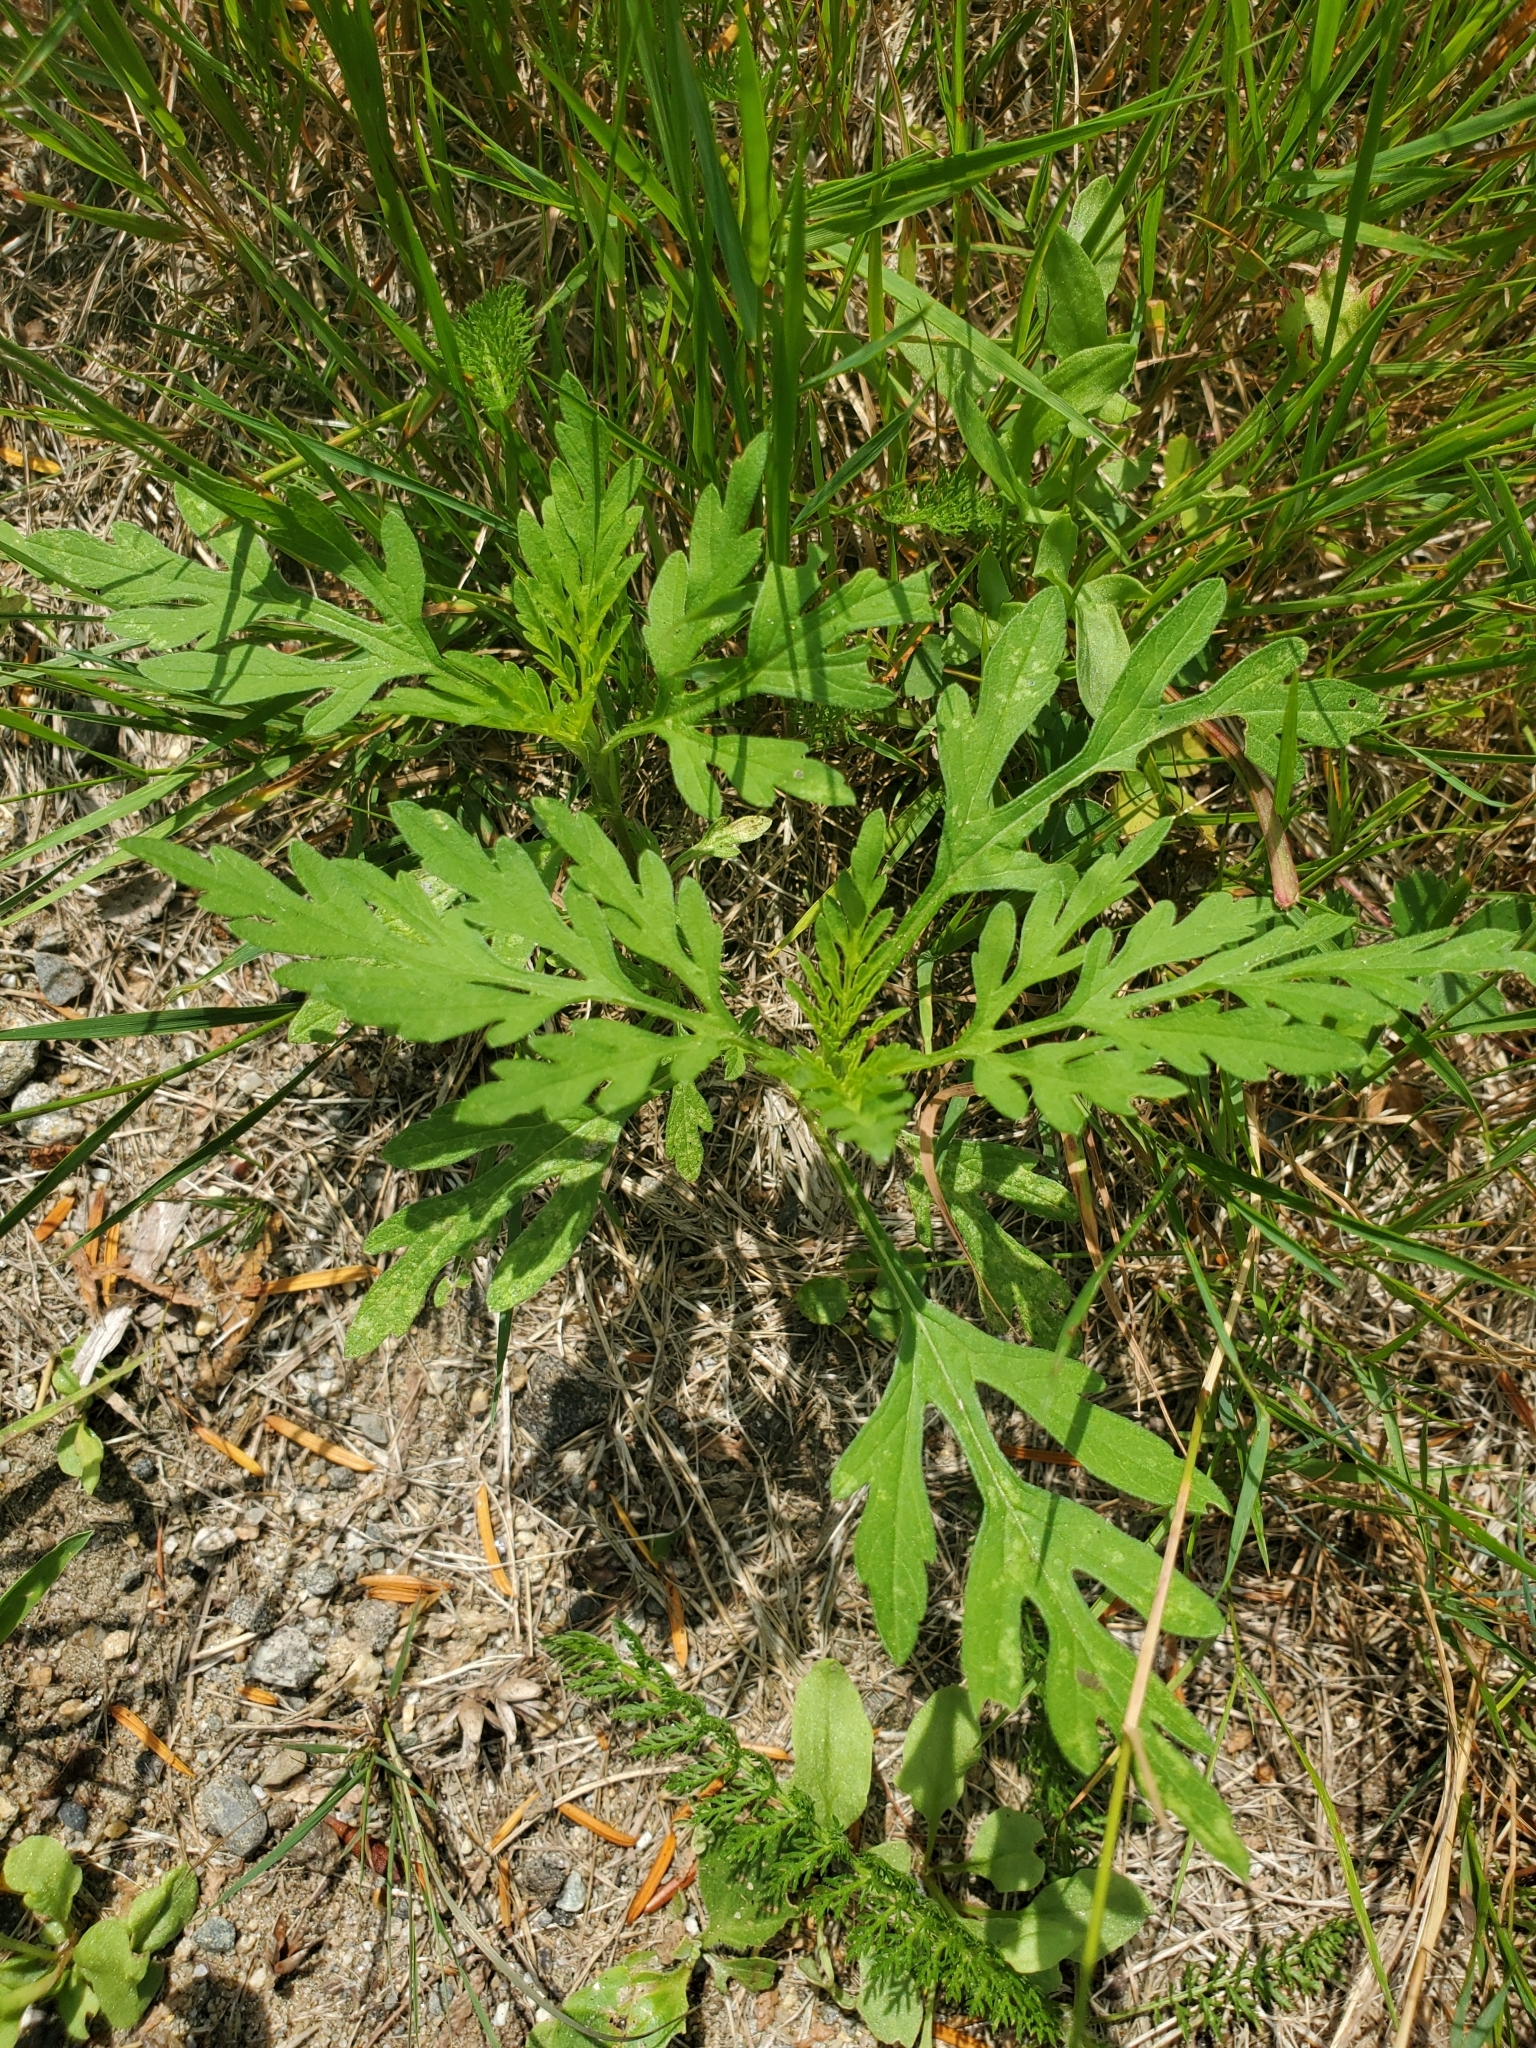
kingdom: Plantae
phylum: Tracheophyta
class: Magnoliopsida
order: Asterales
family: Asteraceae
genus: Ambrosia
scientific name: Ambrosia artemisiifolia
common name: Annual ragweed
